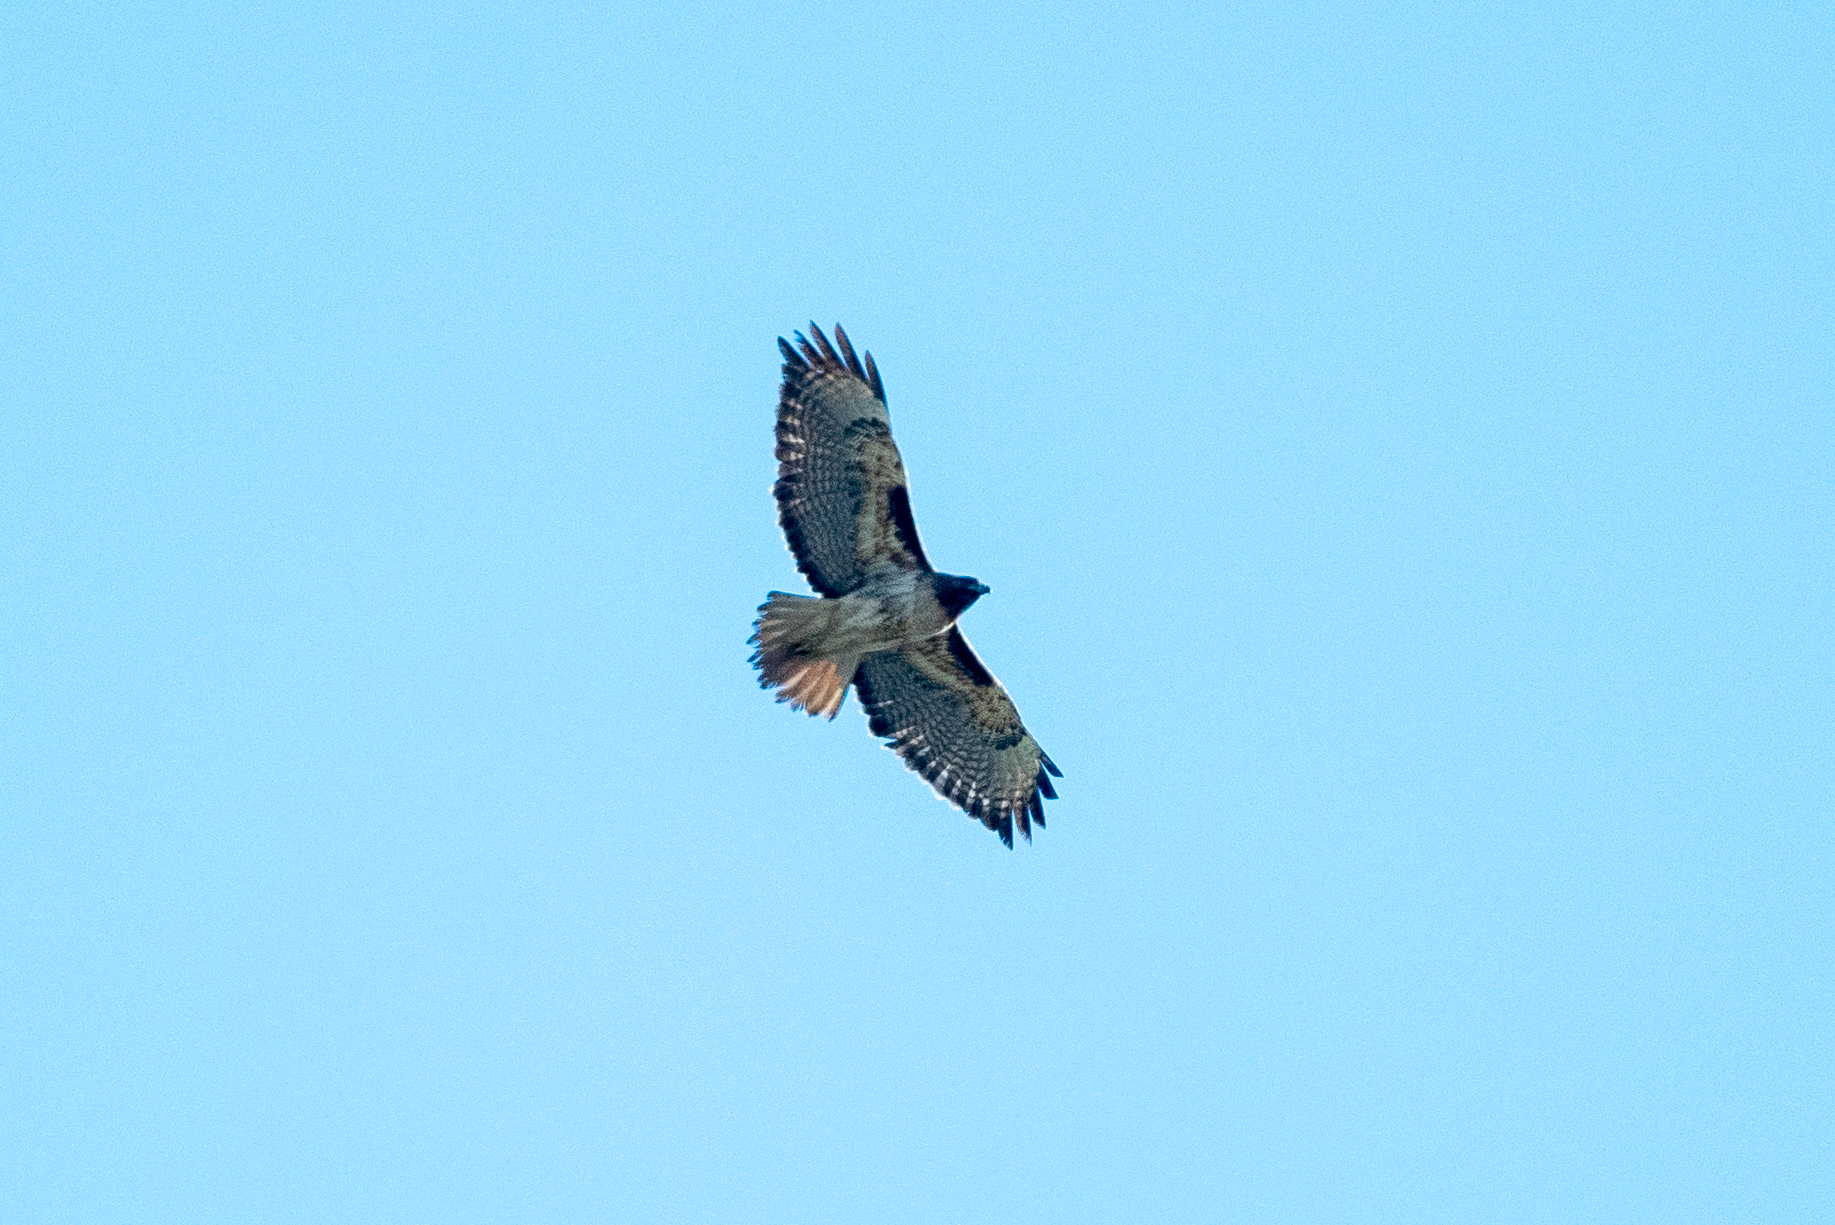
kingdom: Animalia
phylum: Chordata
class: Aves
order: Accipitriformes
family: Accipitridae
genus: Buteo
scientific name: Buteo jamaicensis
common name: Red-tailed hawk
